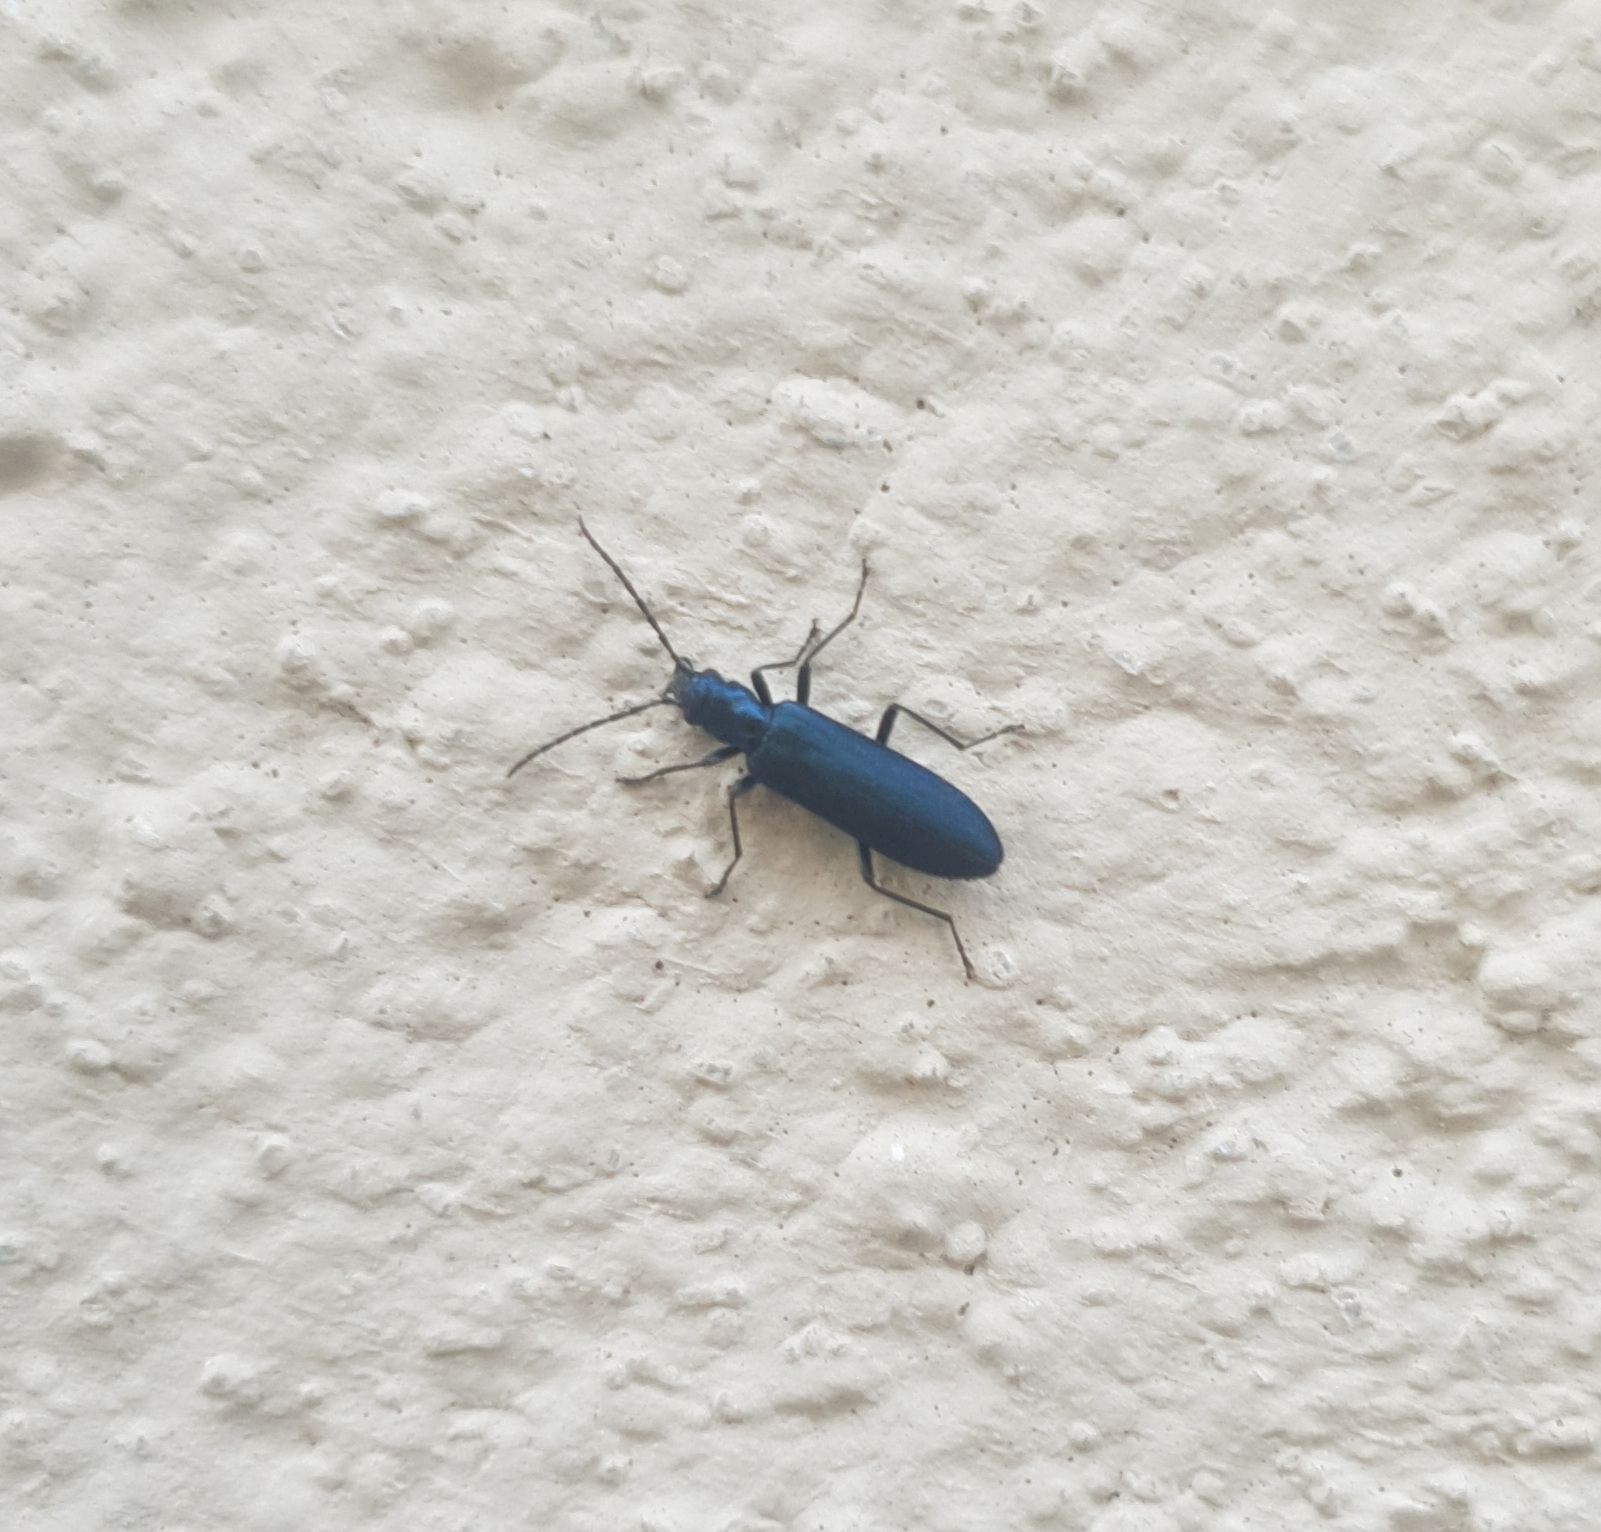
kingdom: Animalia
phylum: Arthropoda
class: Insecta
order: Coleoptera
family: Oedemeridae
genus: Ischnomera
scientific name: Ischnomera
